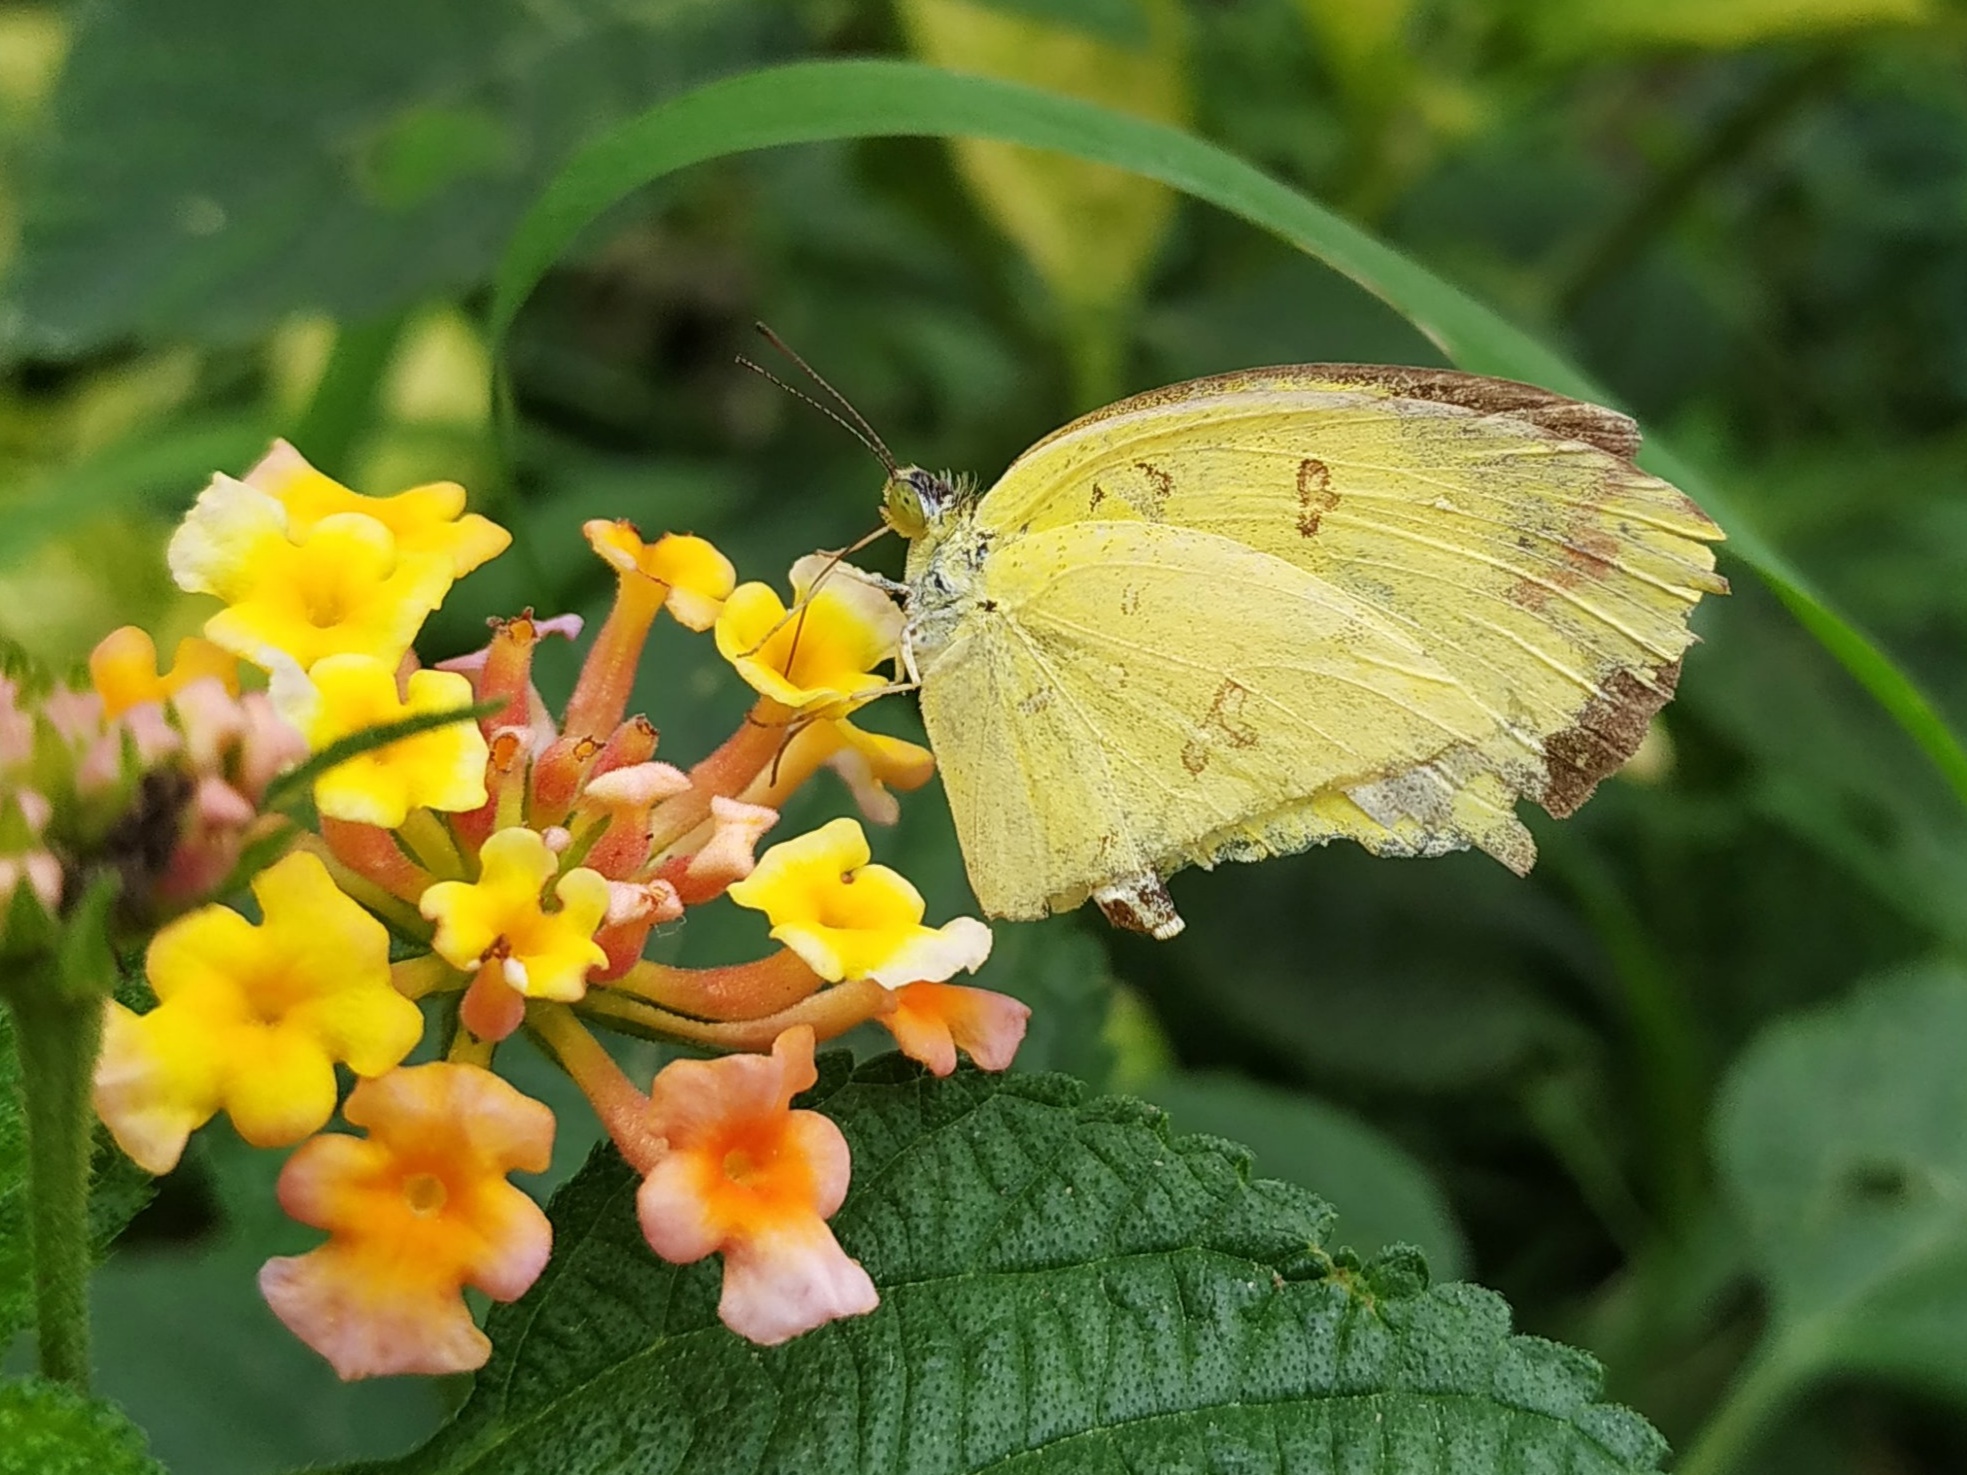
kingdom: Animalia
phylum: Arthropoda
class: Insecta
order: Lepidoptera
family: Pieridae
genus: Eurema
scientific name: Eurema hecabe
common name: Pale grass yellow
